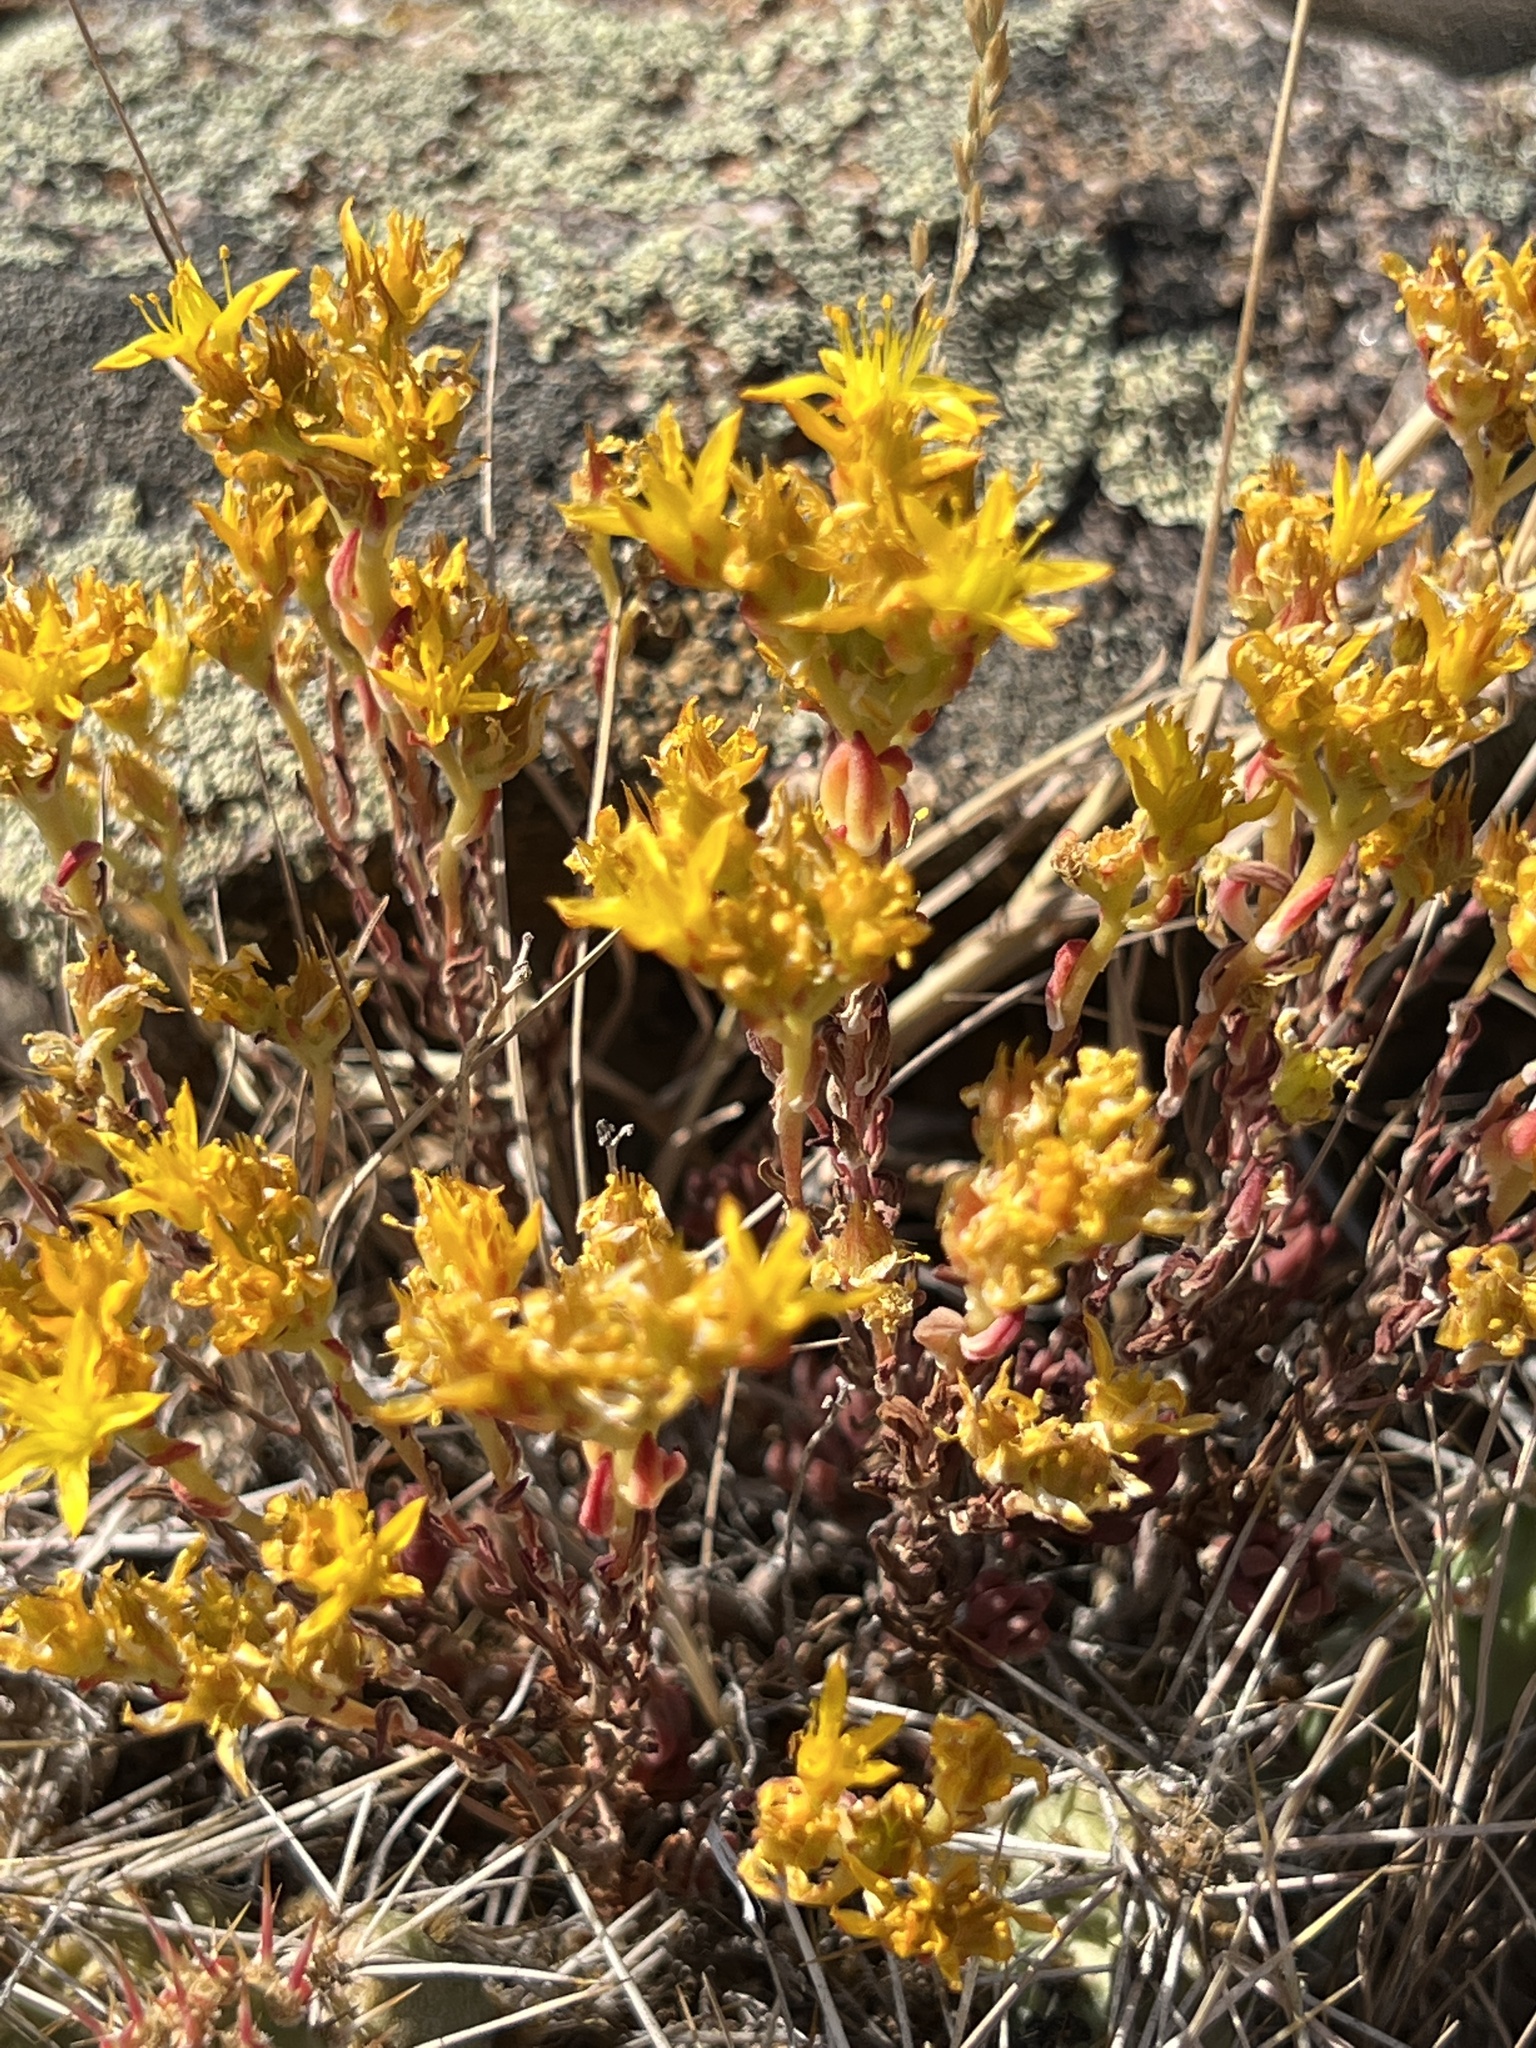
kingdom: Plantae
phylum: Tracheophyta
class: Magnoliopsida
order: Saxifragales
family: Crassulaceae
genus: Sedum
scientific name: Sedum lanceolatum
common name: Common stonecrop
